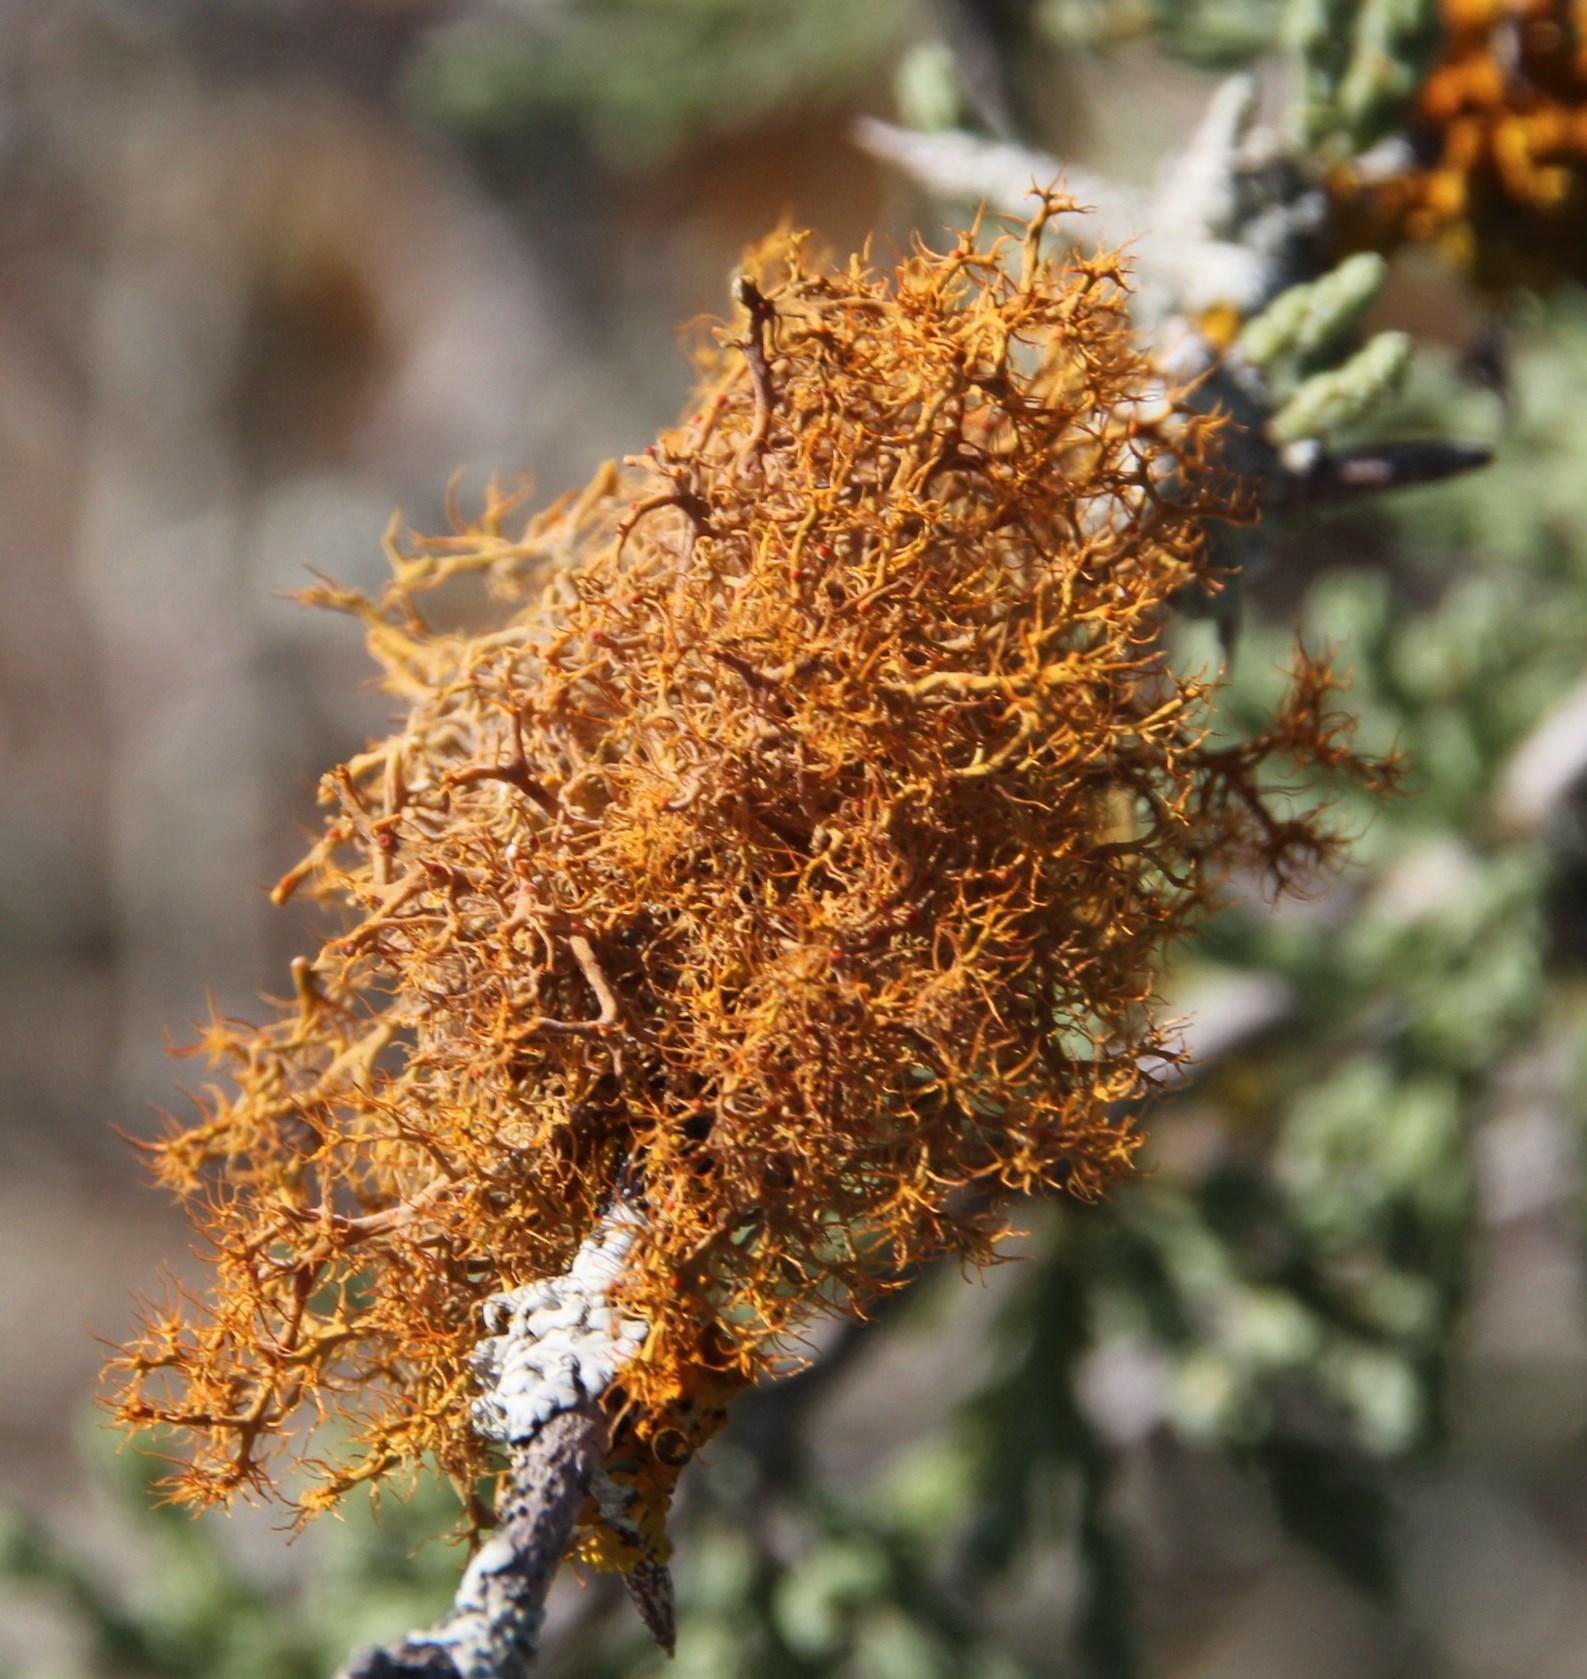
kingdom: Fungi
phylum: Ascomycota
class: Lecanoromycetes
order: Teloschistales
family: Teloschistaceae
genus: Teloschistes
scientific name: Teloschistes capensis
